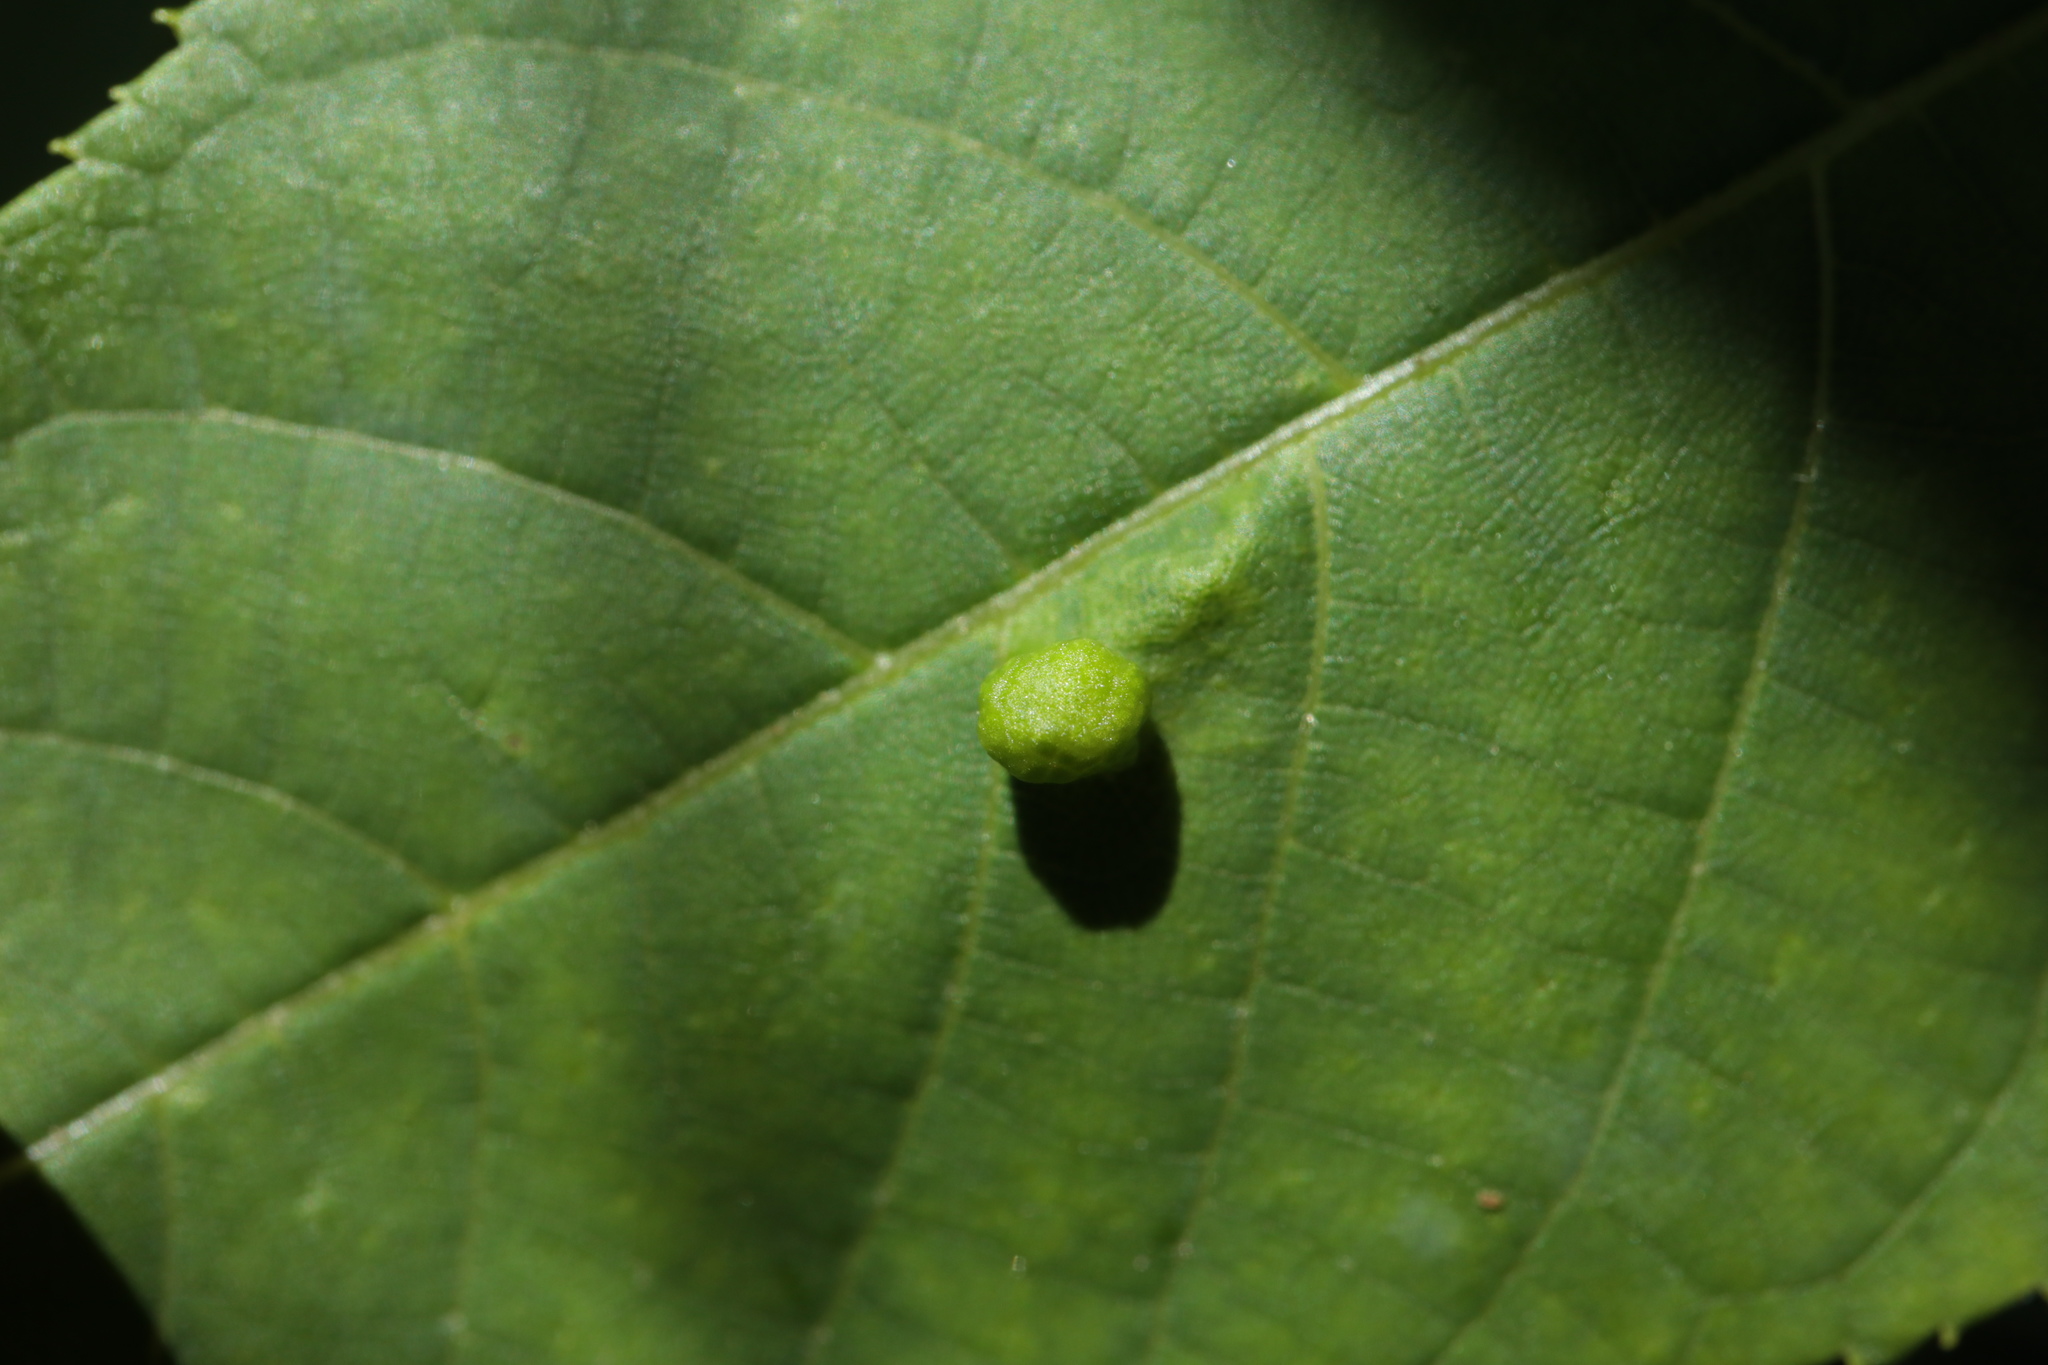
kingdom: Animalia
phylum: Arthropoda
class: Arachnida
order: Trombidiformes
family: Eriophyidae
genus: Aceria
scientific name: Aceria brachytarsus
